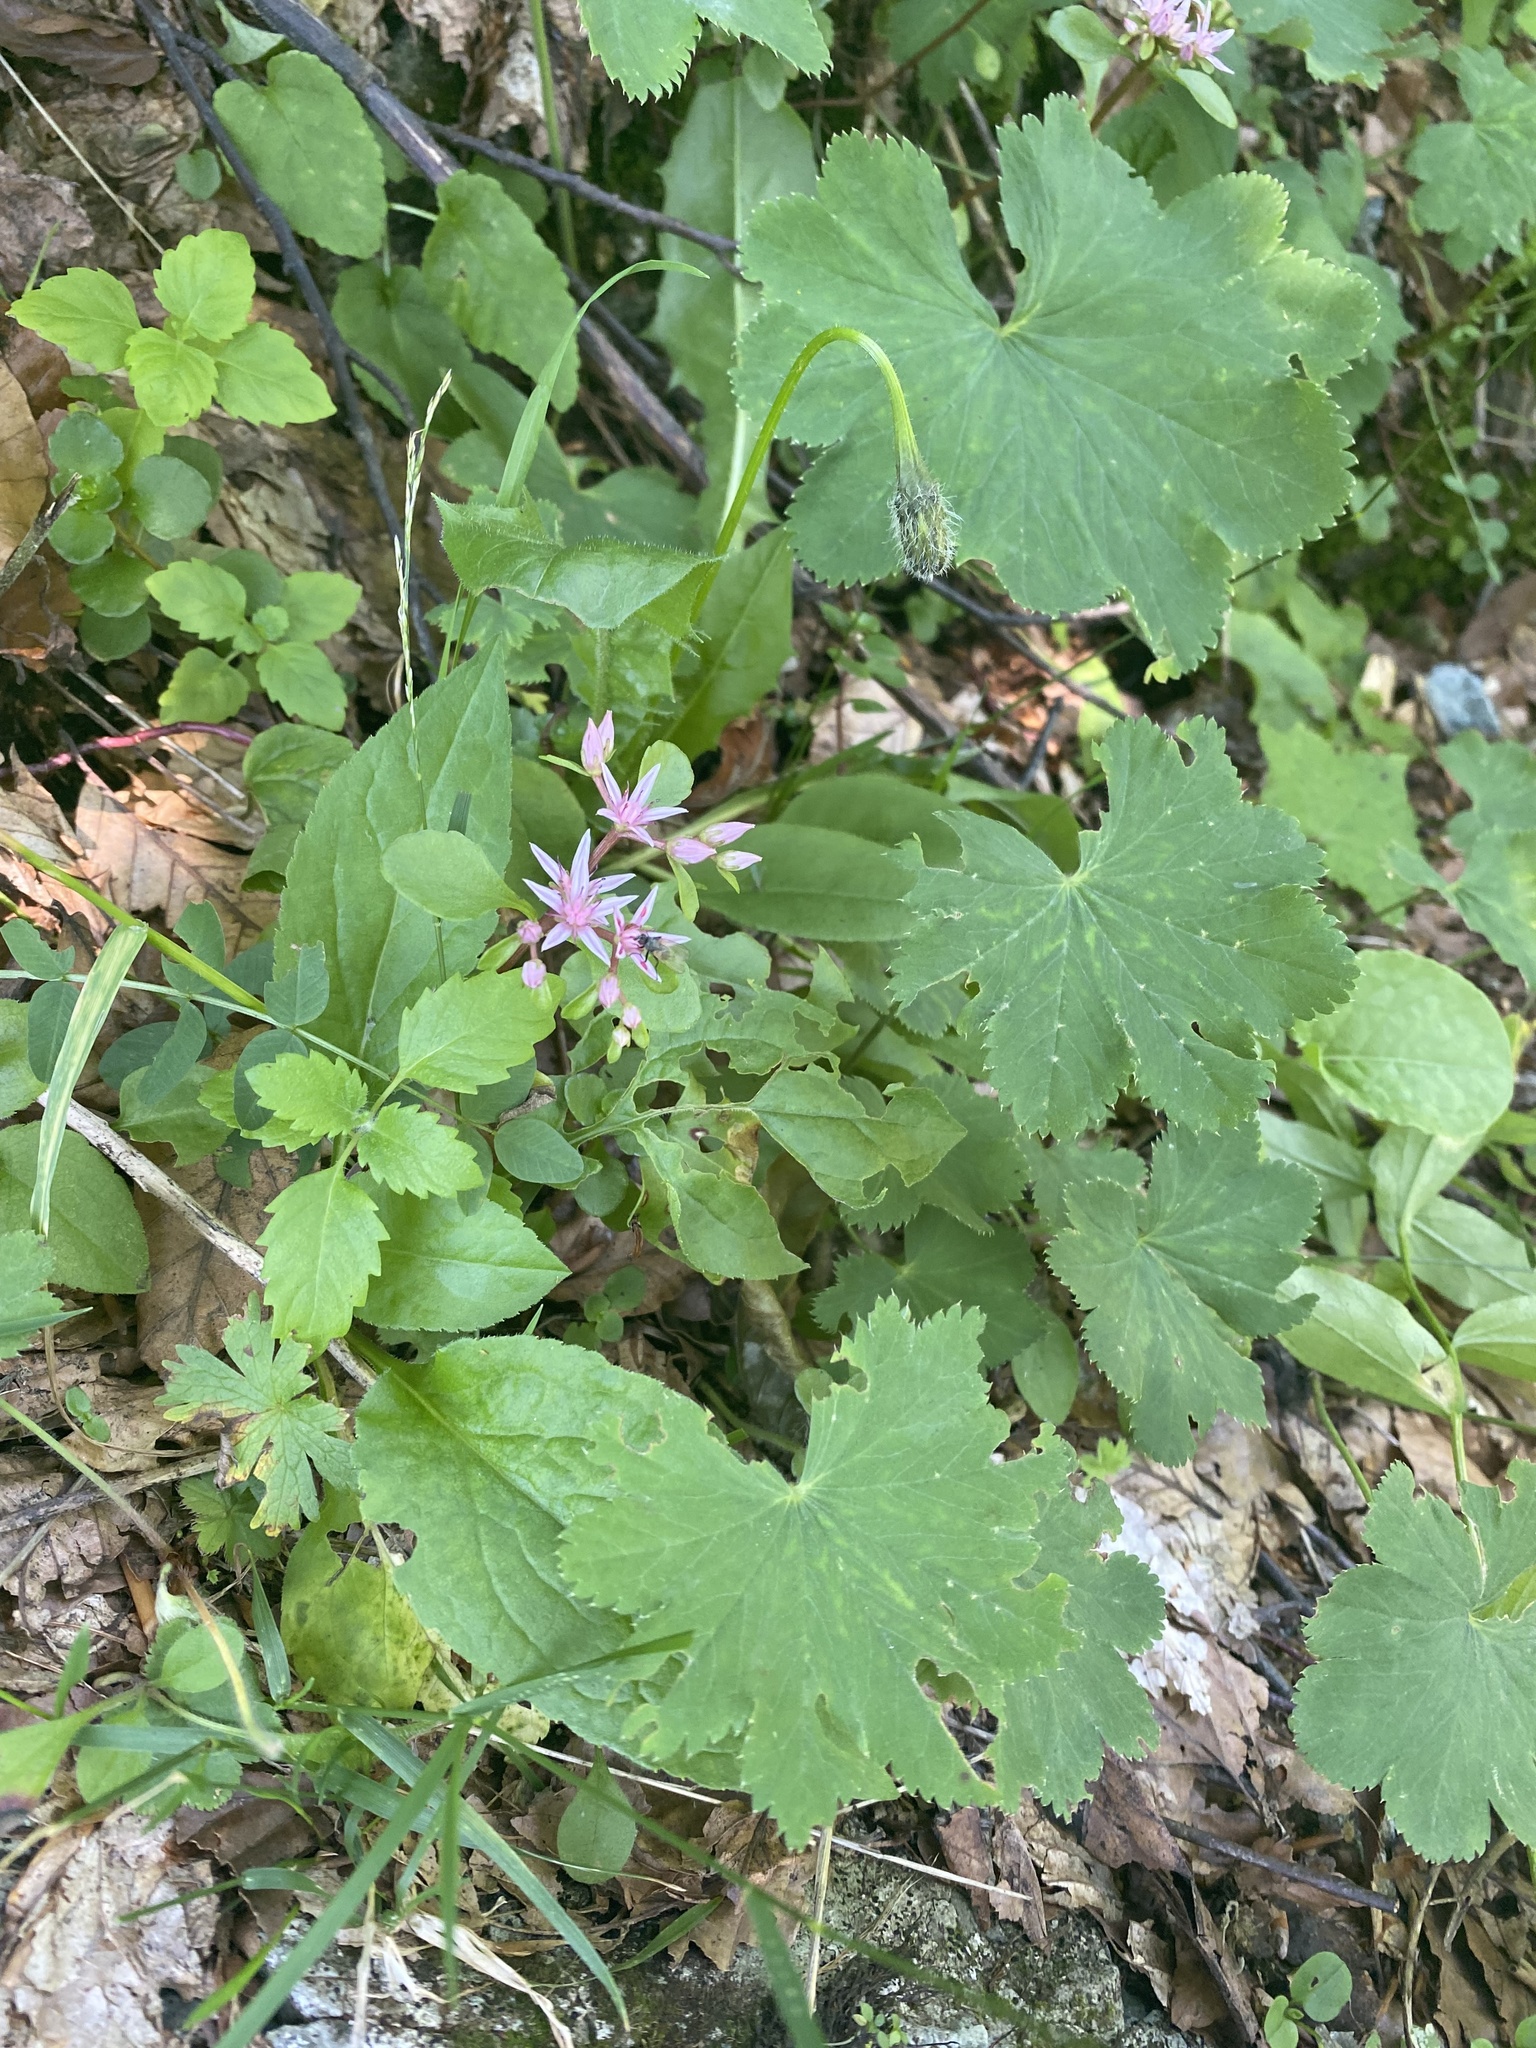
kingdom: Plantae
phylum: Tracheophyta
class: Magnoliopsida
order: Saxifragales
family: Crassulaceae
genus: Phedimus
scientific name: Phedimus stolonifer
